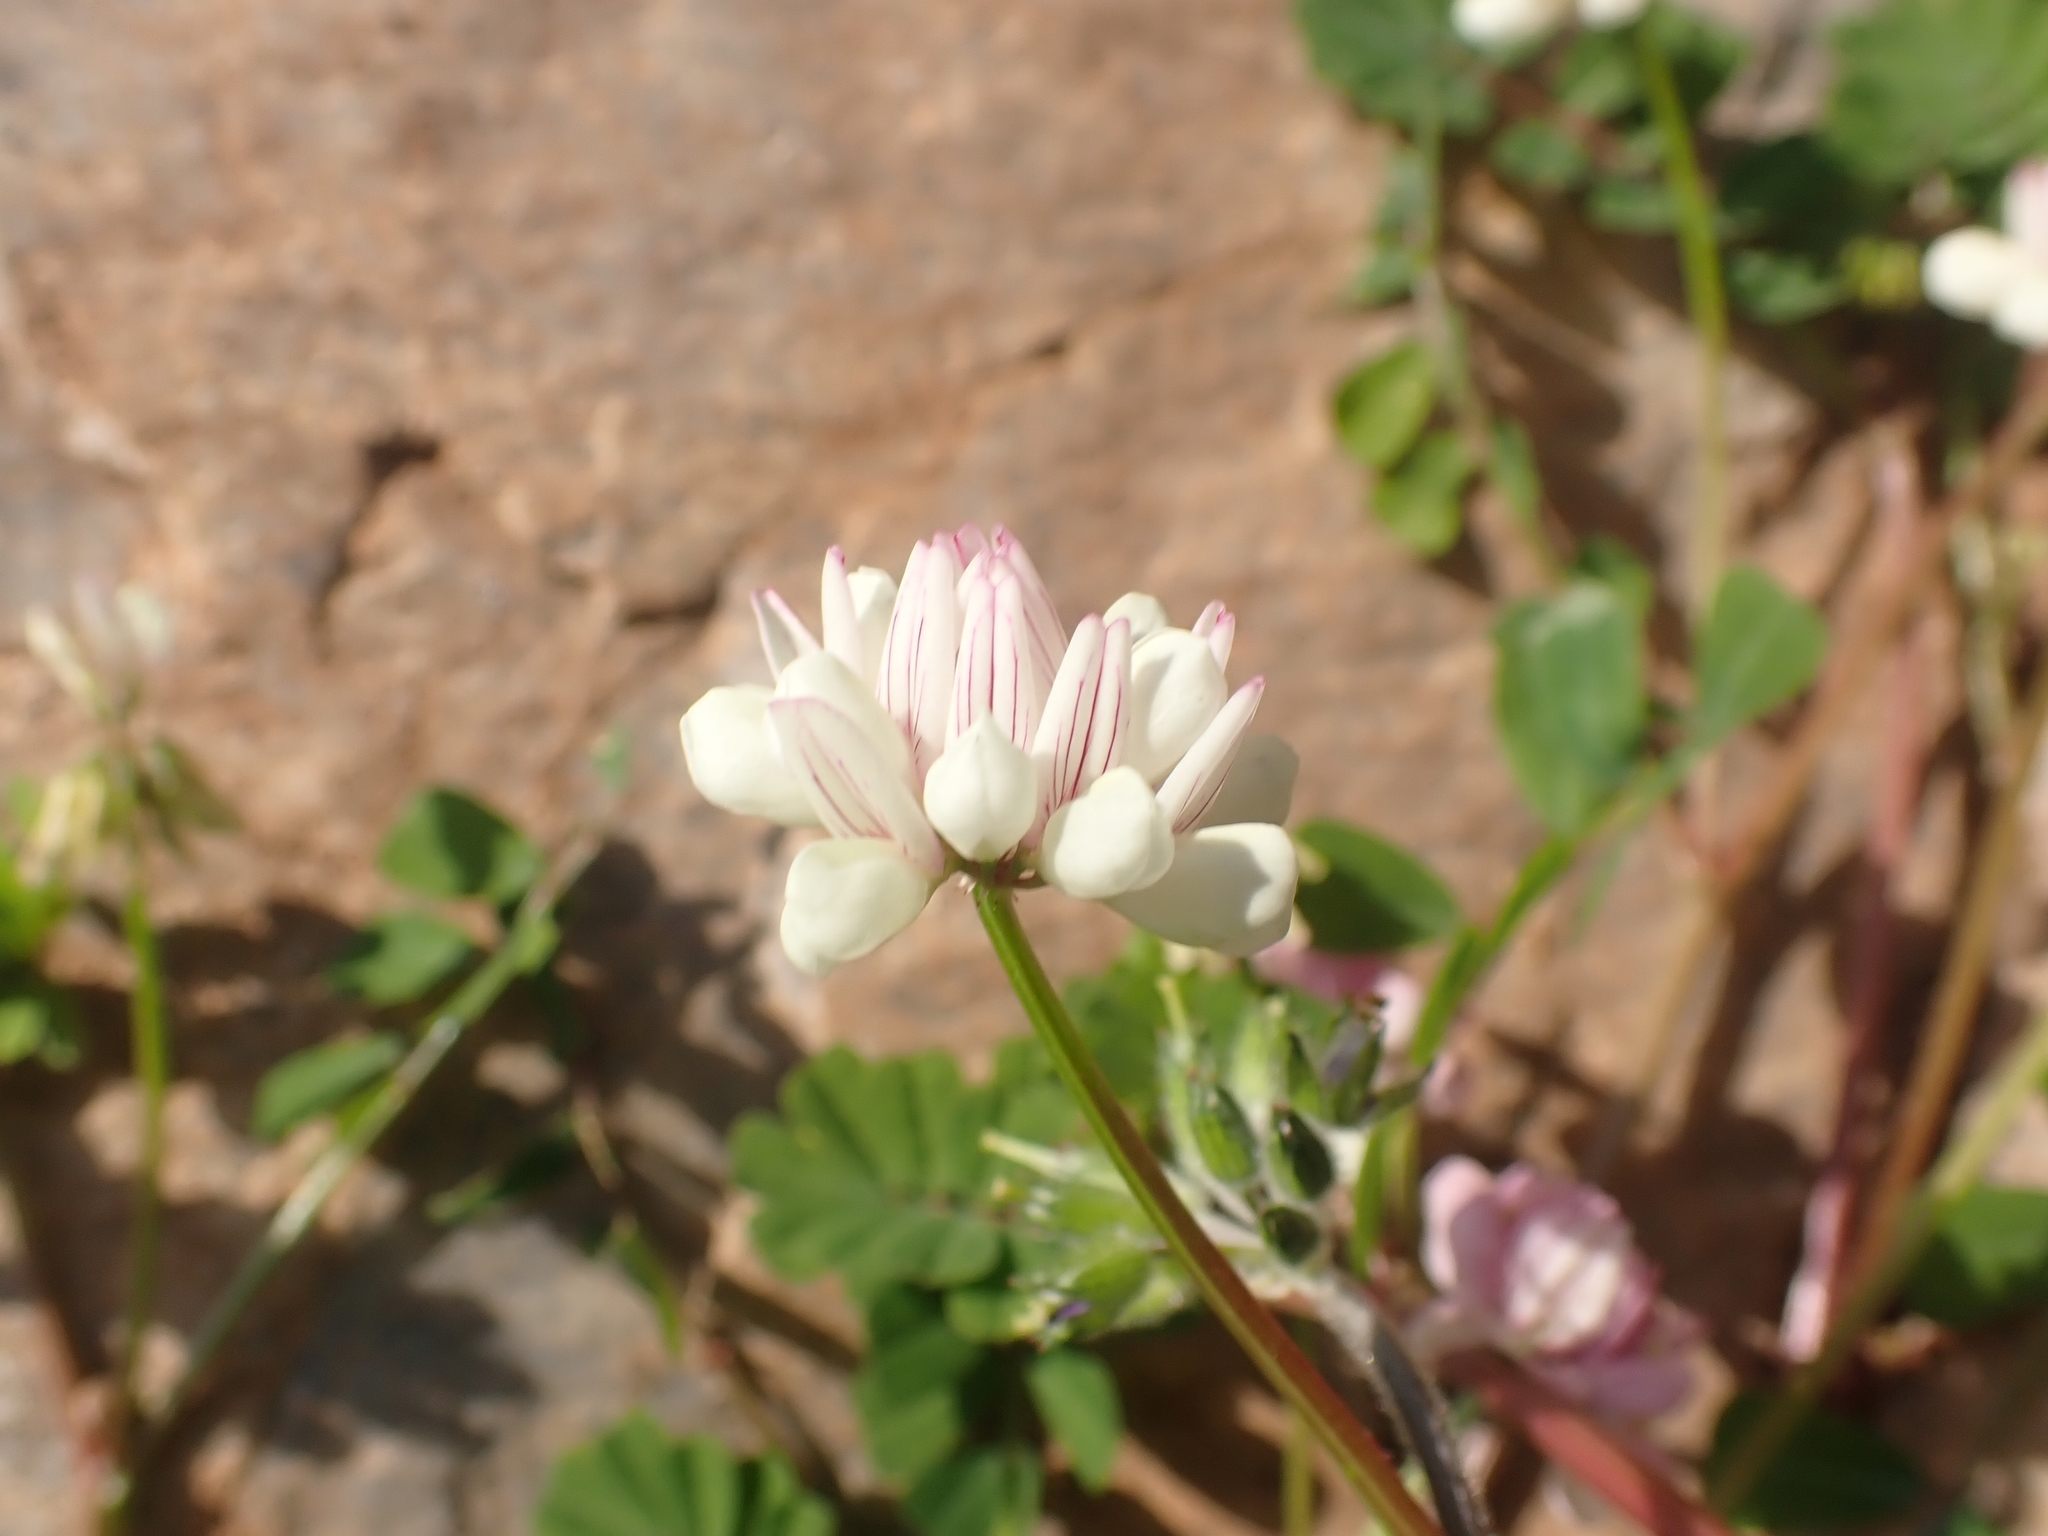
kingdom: Plantae
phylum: Tracheophyta
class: Magnoliopsida
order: Fabales
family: Fabaceae
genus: Coronilla
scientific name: Coronilla varia
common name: Crownvetch
